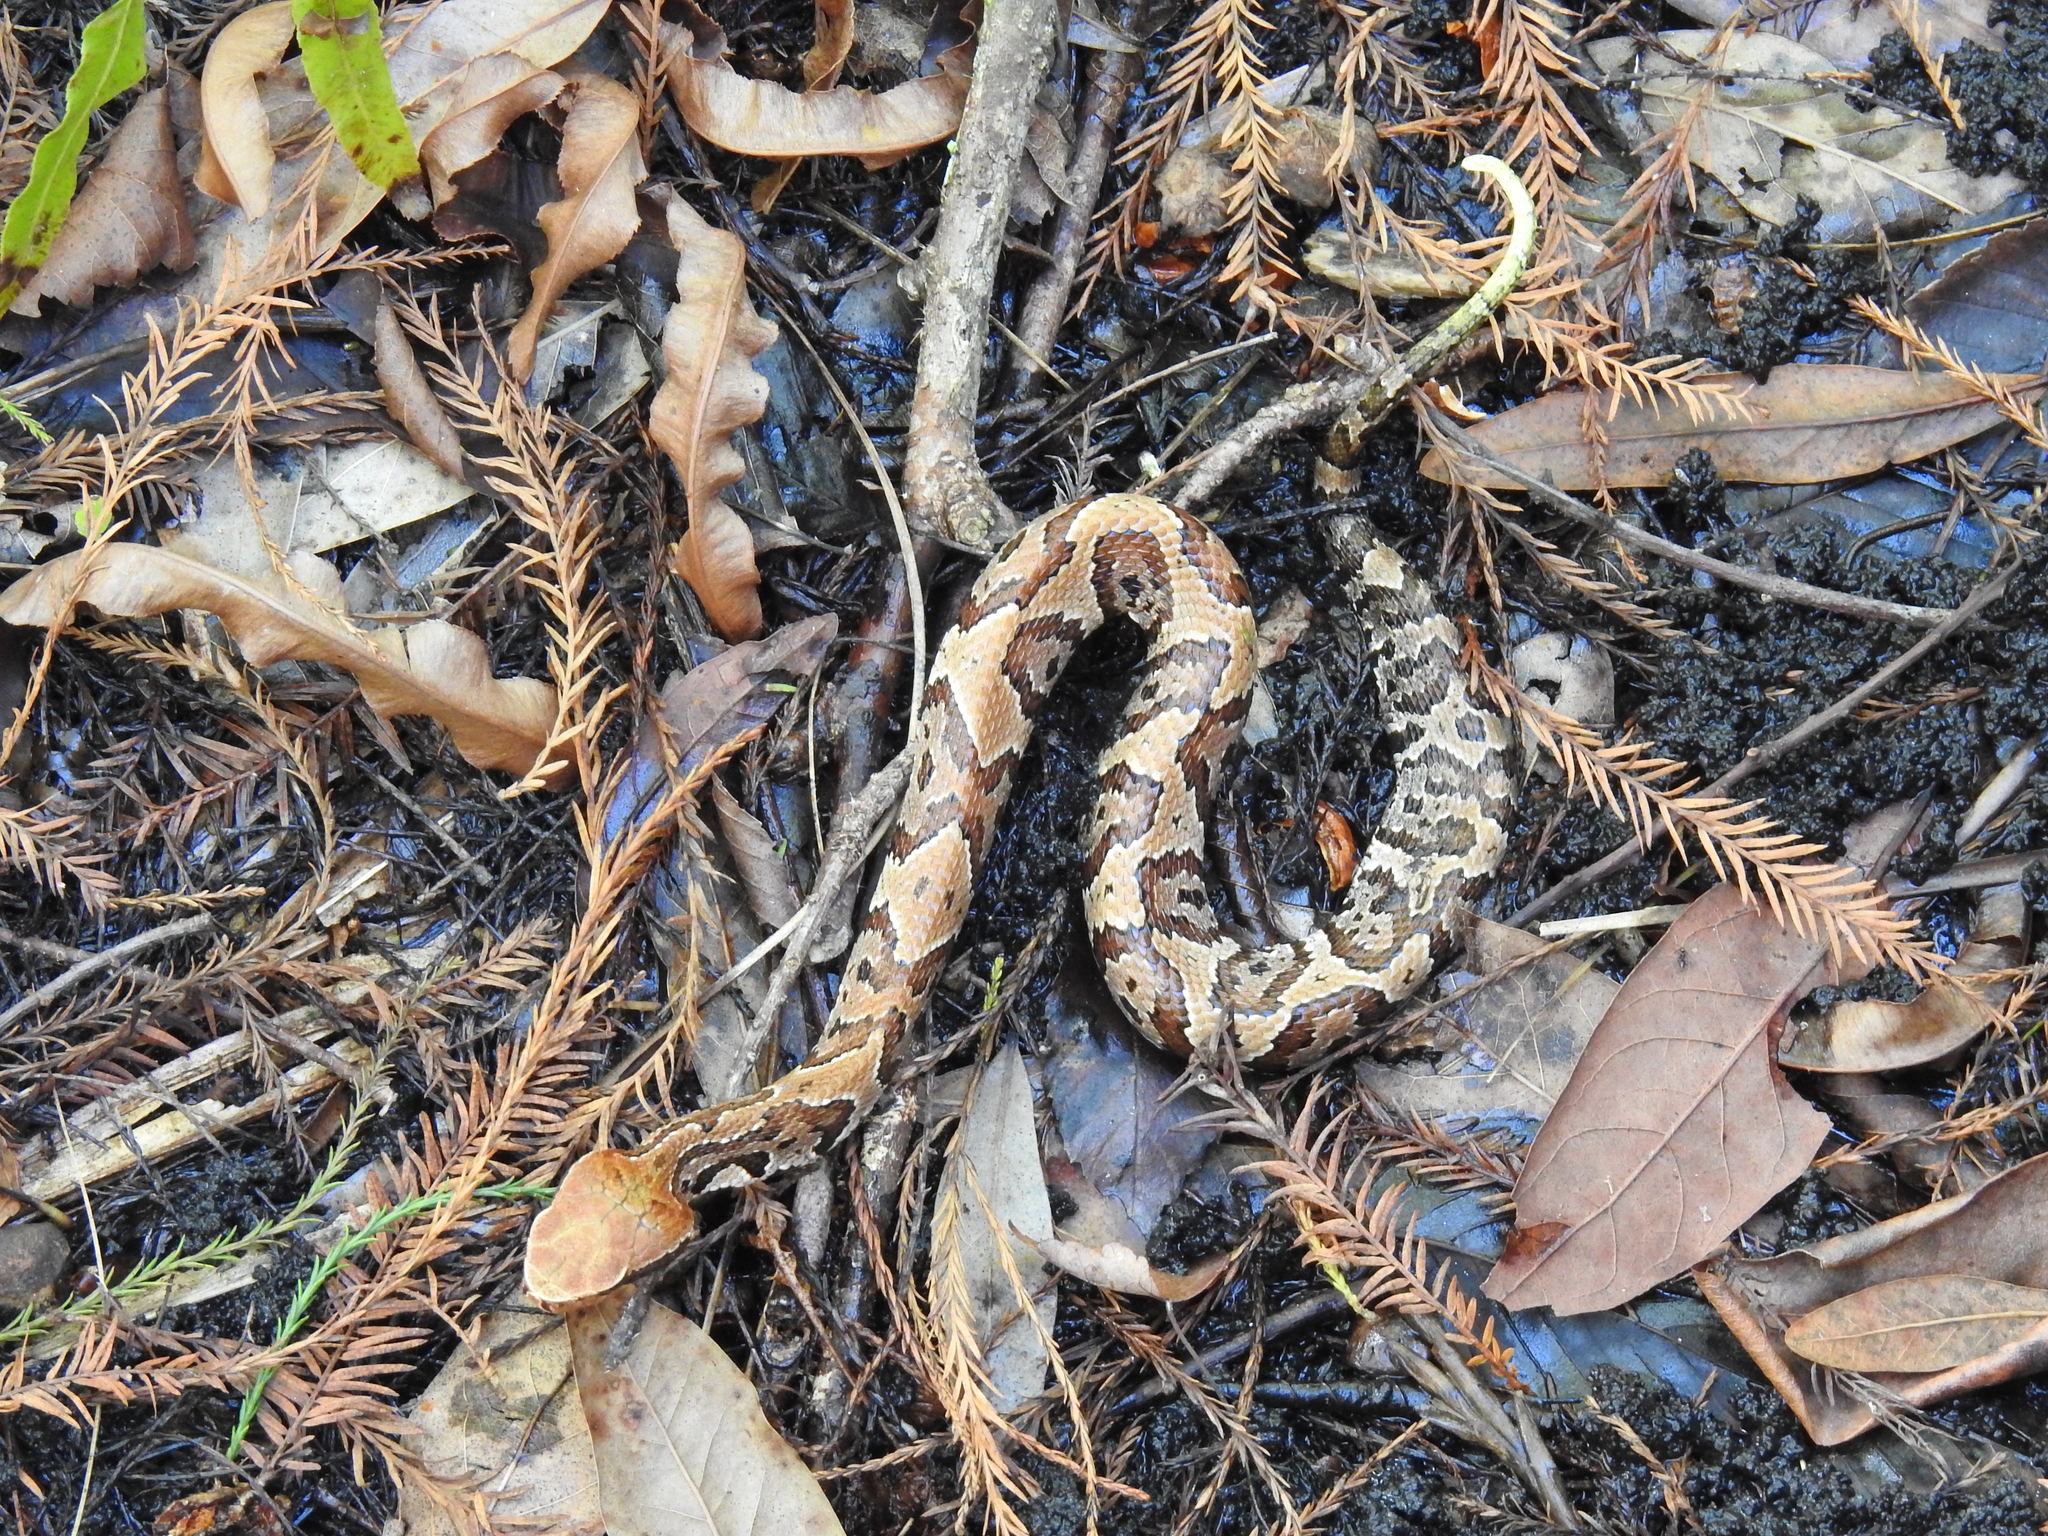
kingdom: Animalia
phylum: Chordata
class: Squamata
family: Viperidae
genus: Agkistrodon
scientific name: Agkistrodon conanti
